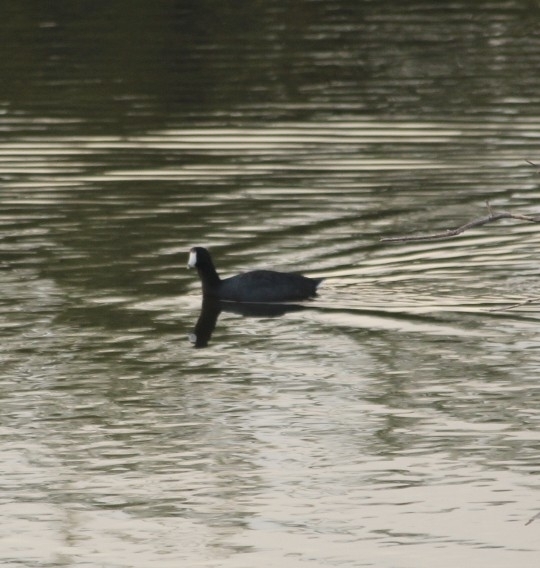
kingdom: Animalia
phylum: Chordata
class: Aves
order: Gruiformes
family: Rallidae
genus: Fulica
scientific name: Fulica americana
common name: American coot
